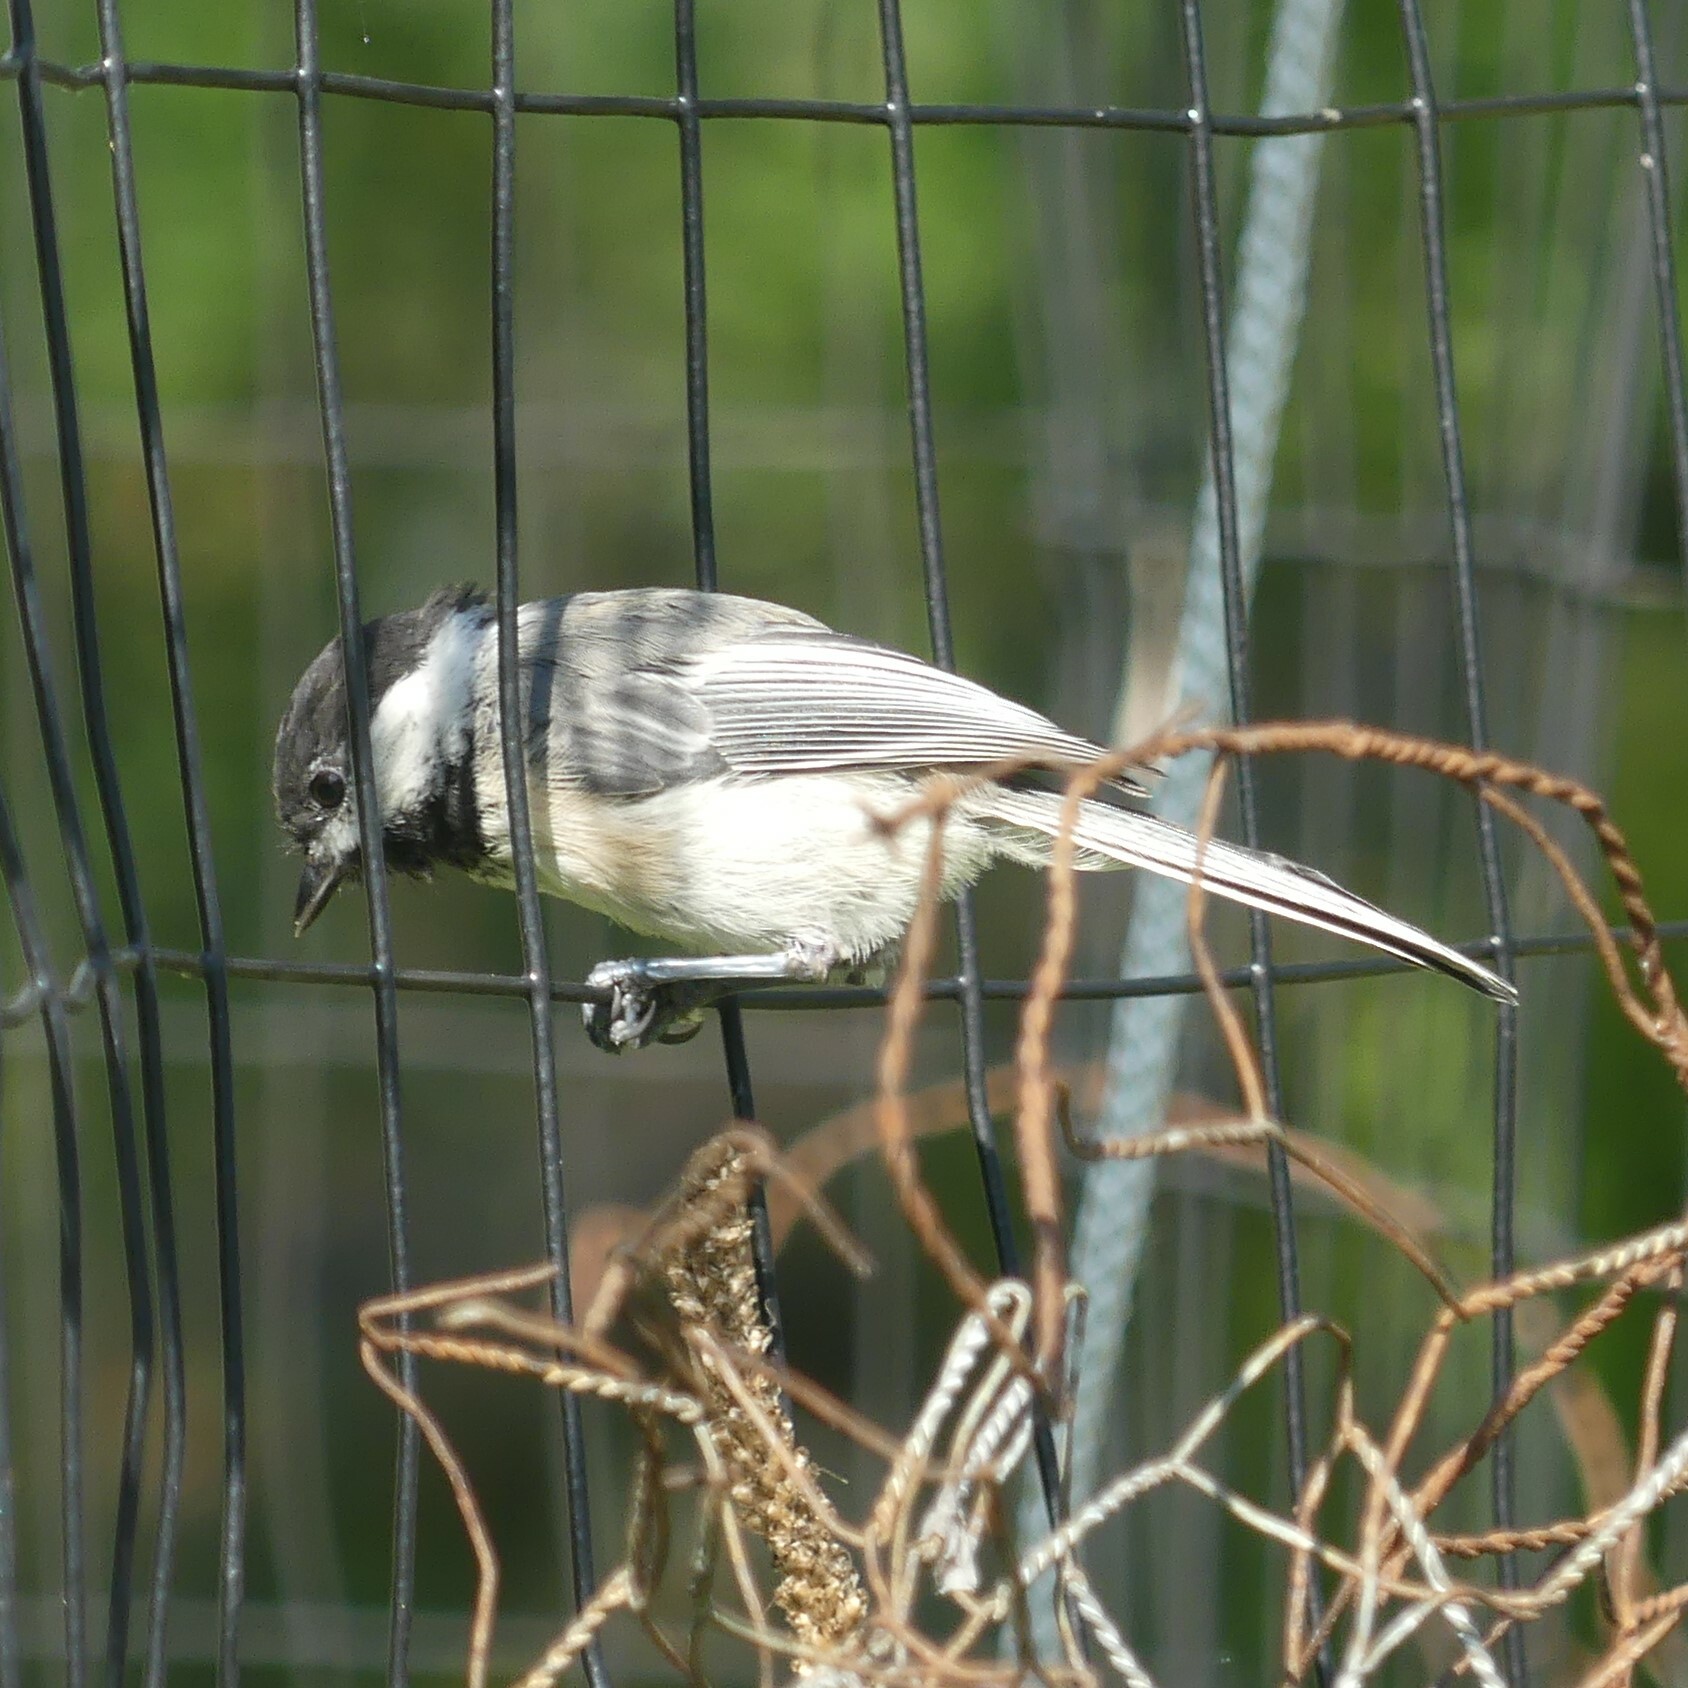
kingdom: Animalia
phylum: Chordata
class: Aves
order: Passeriformes
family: Paridae
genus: Poecile
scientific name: Poecile atricapillus
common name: Black-capped chickadee
